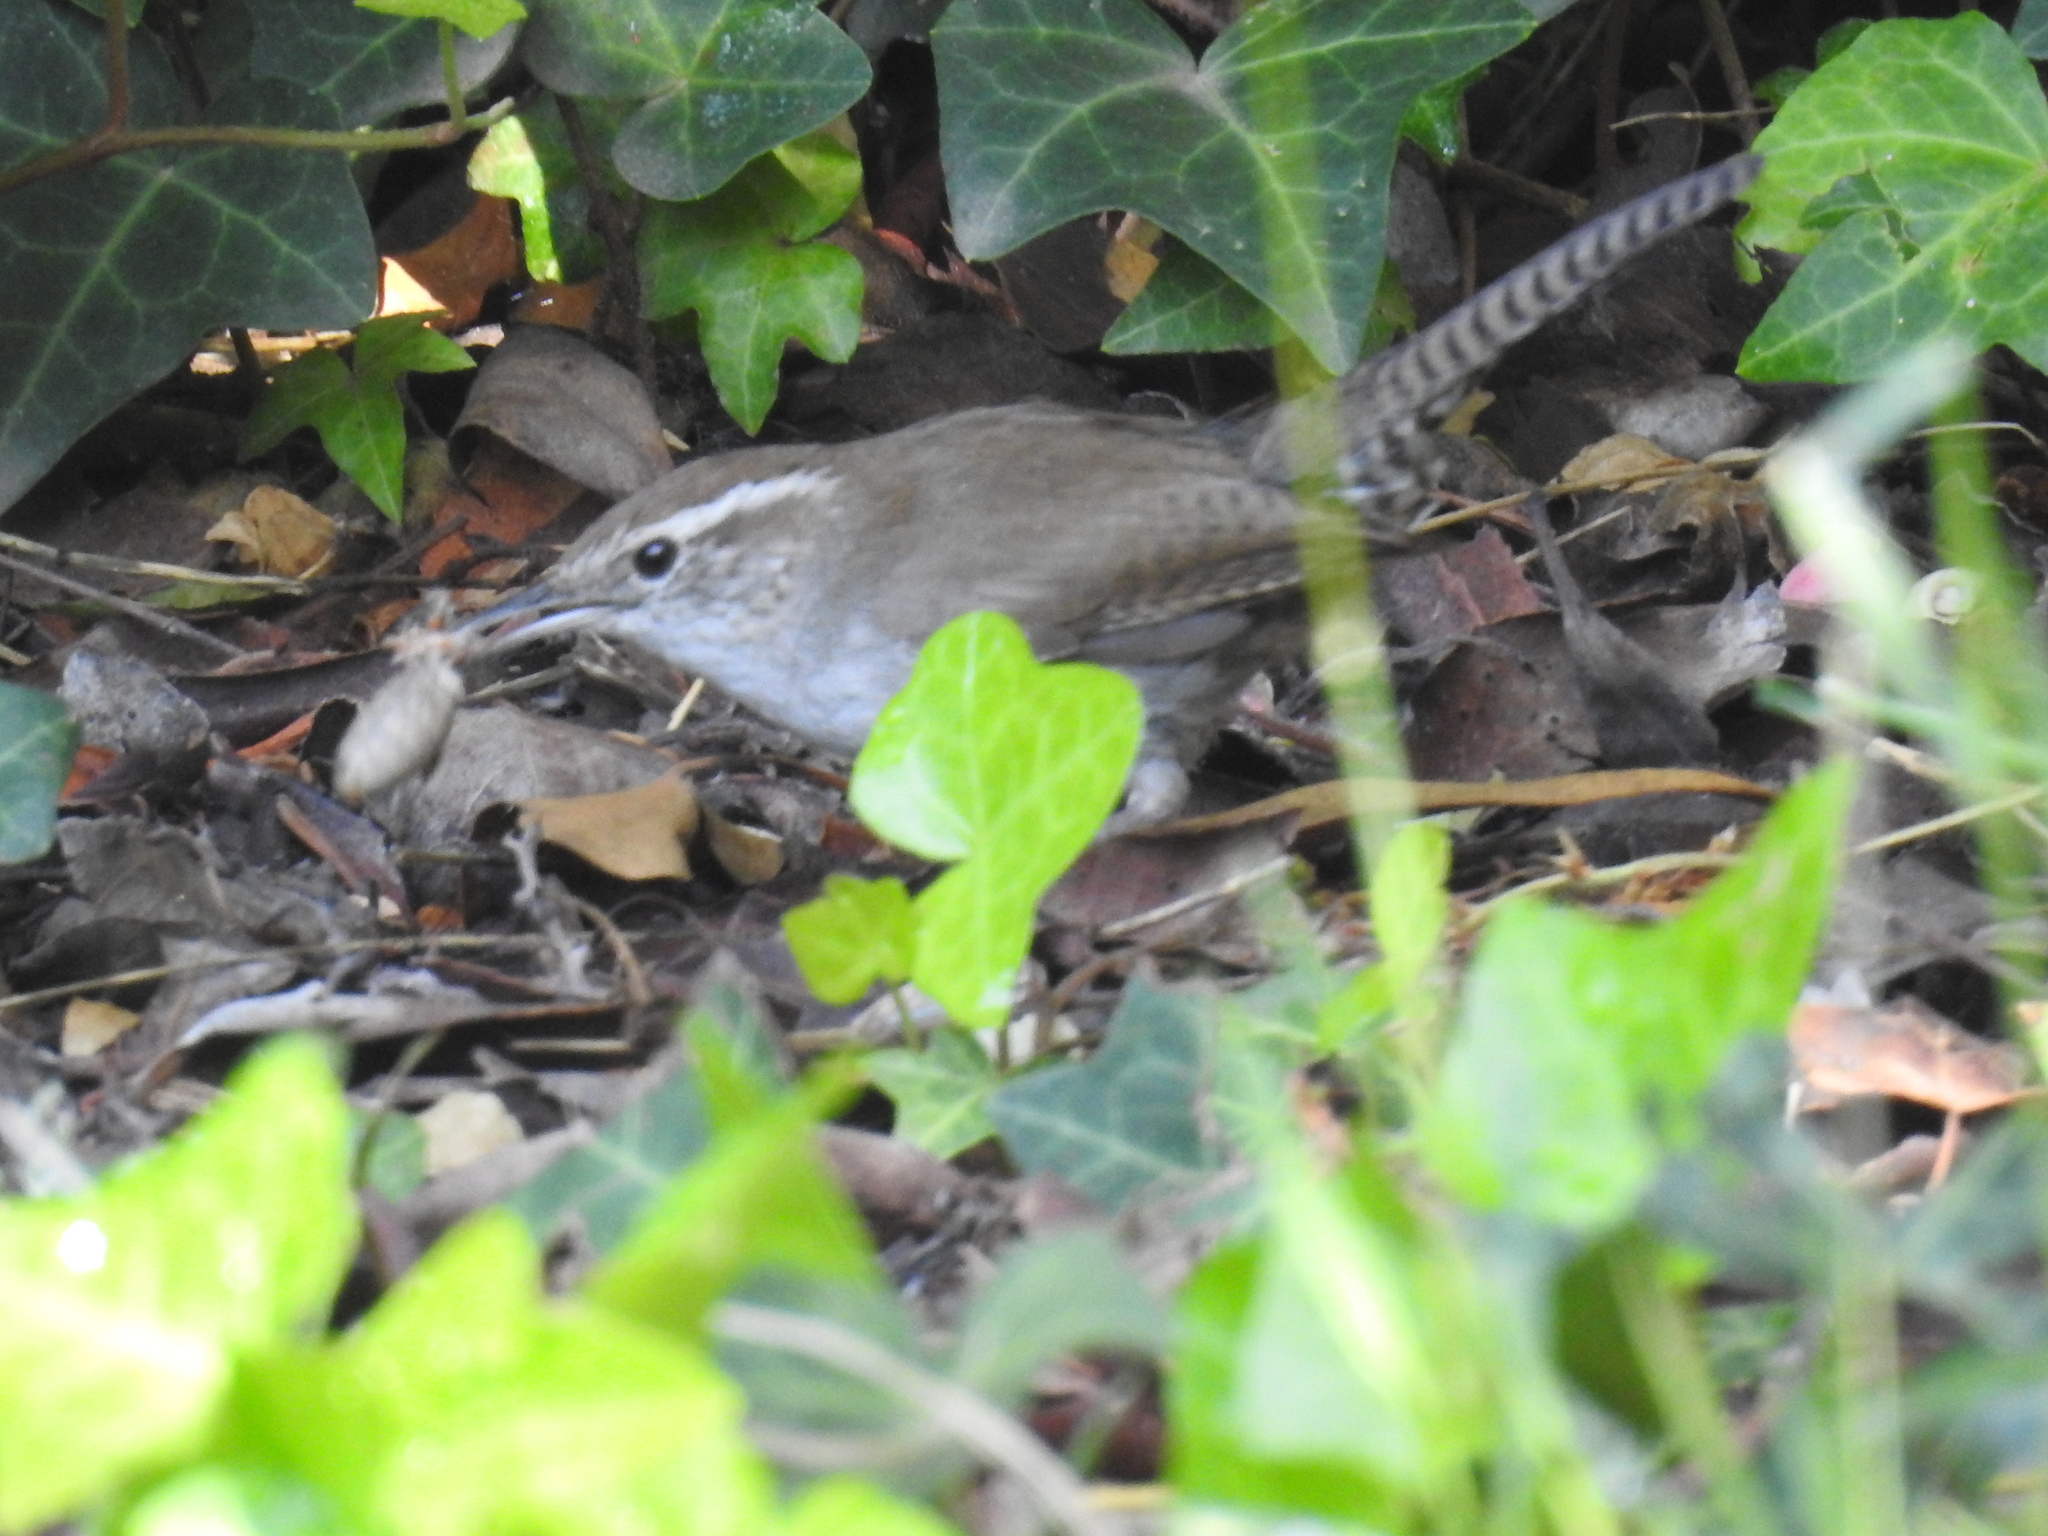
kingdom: Animalia
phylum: Chordata
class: Aves
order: Passeriformes
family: Troglodytidae
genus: Thryomanes
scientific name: Thryomanes bewickii
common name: Bewick's wren
